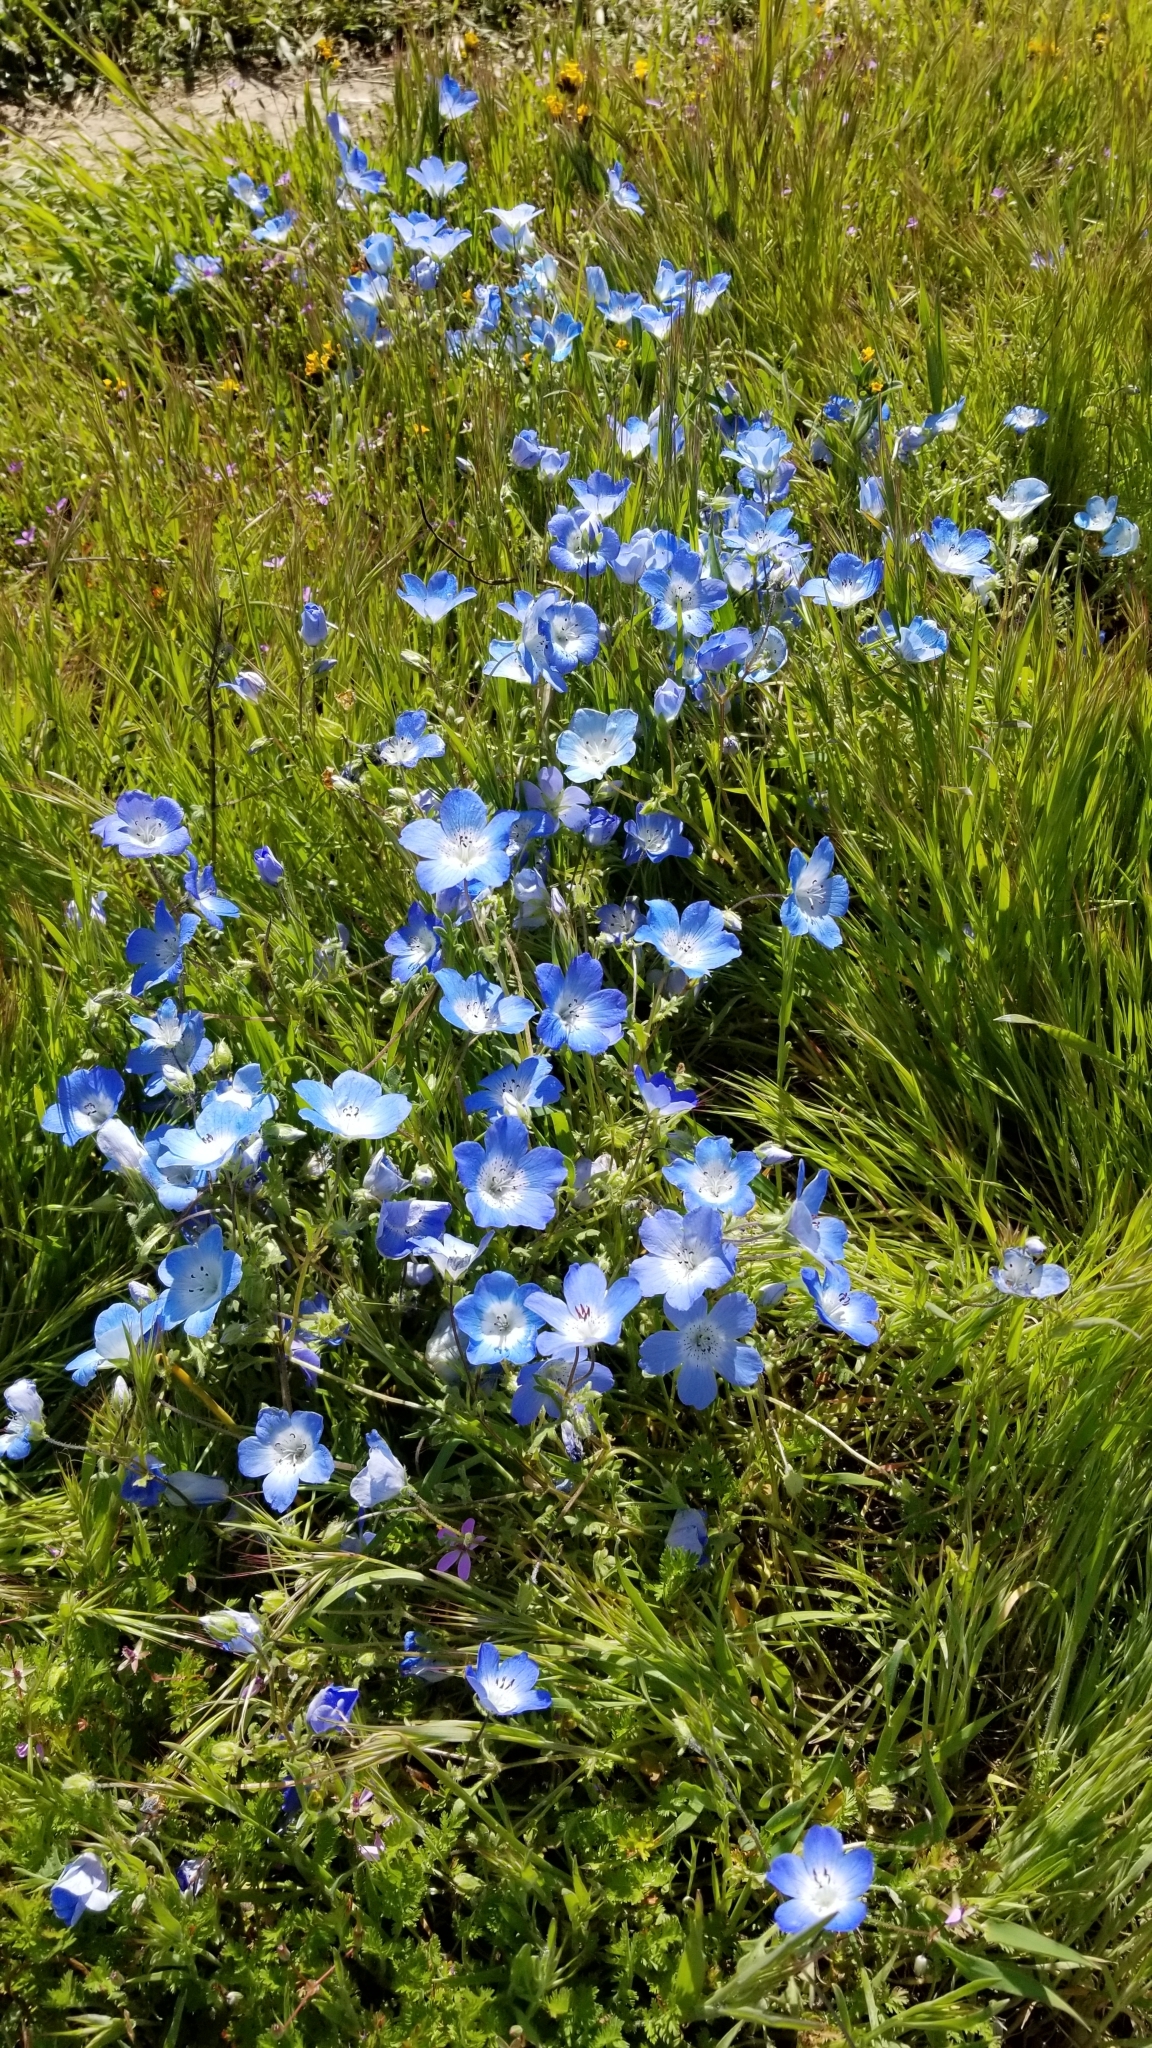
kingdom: Plantae
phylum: Tracheophyta
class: Magnoliopsida
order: Boraginales
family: Hydrophyllaceae
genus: Nemophila
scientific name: Nemophila menziesii
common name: Baby's-blue-eyes
